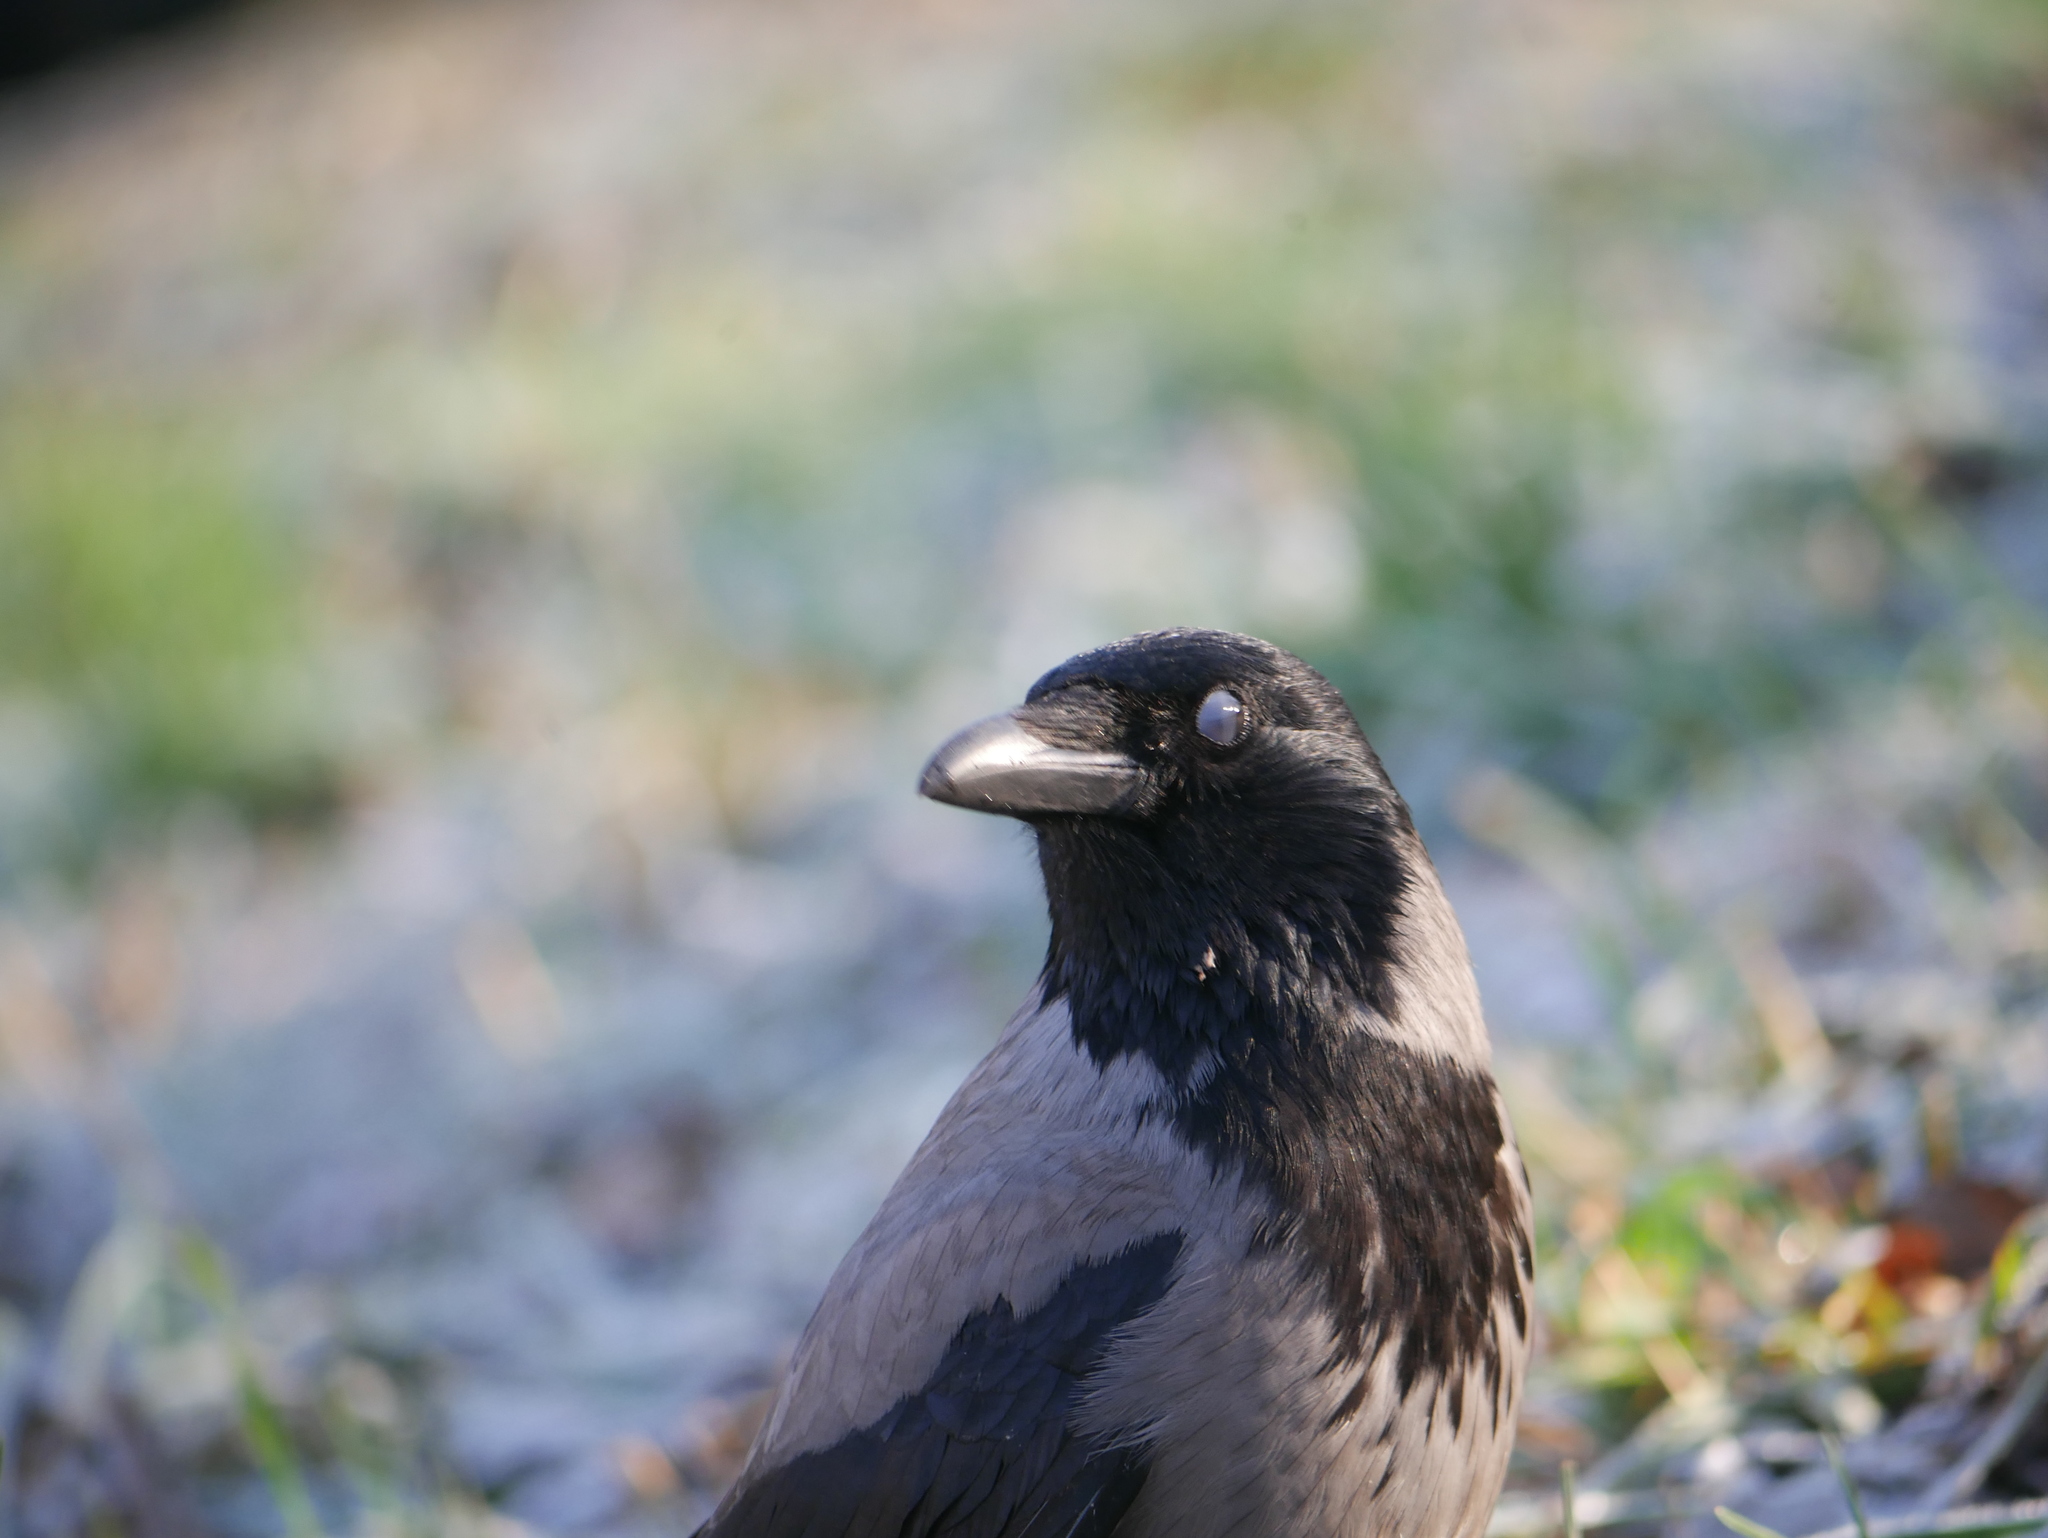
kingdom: Animalia
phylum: Chordata
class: Aves
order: Passeriformes
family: Corvidae
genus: Corvus
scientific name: Corvus cornix
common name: Hooded crow
